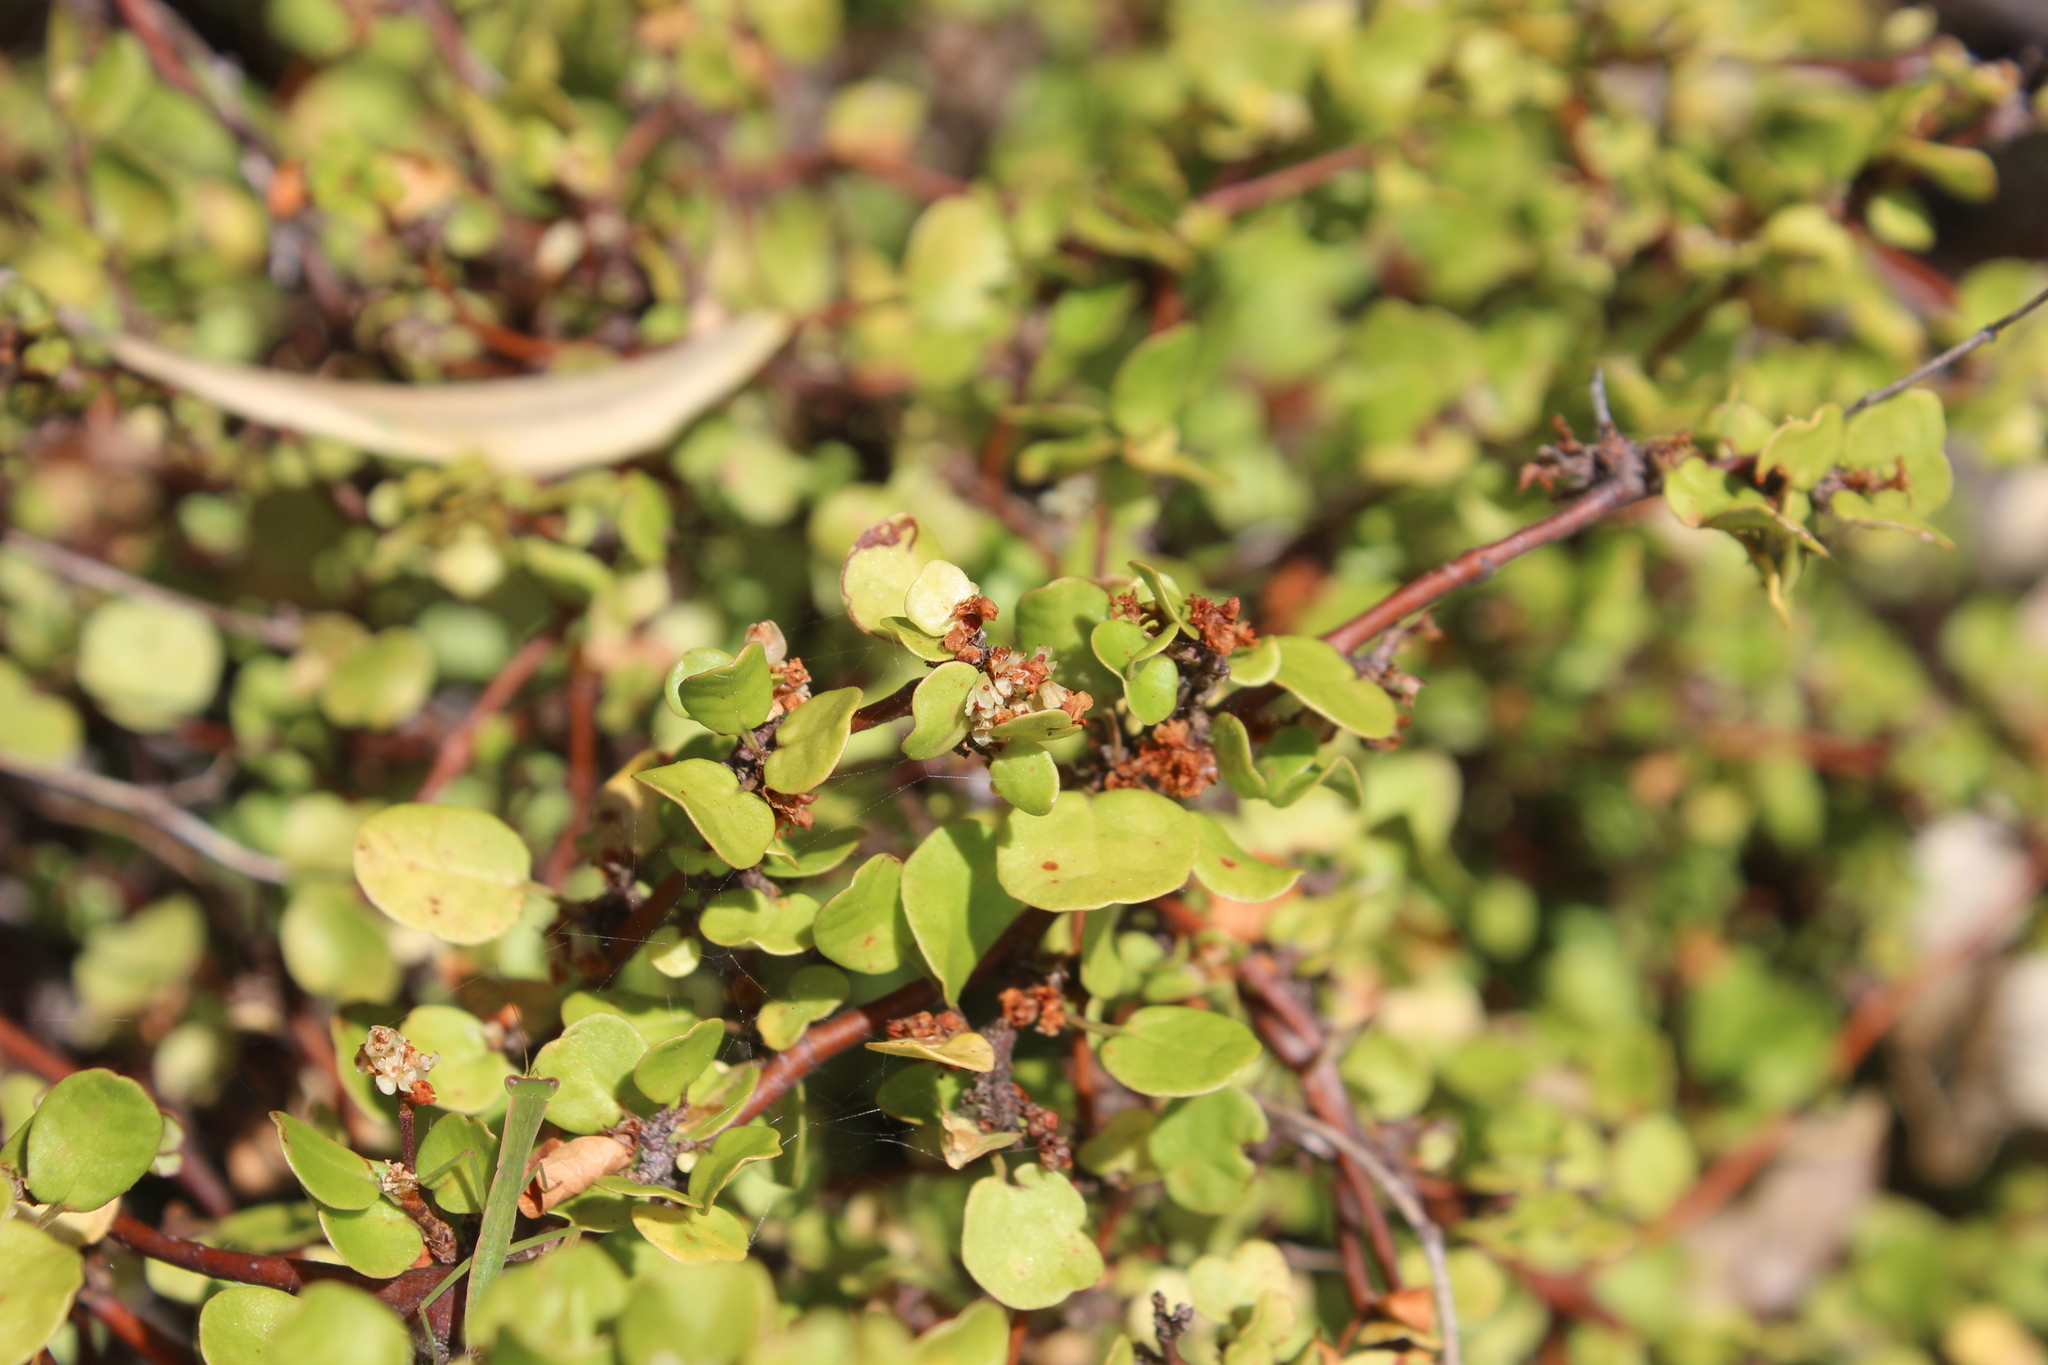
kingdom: Plantae
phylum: Tracheophyta
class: Magnoliopsida
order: Caryophyllales
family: Polygonaceae
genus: Muehlenbeckia
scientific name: Muehlenbeckia complexa
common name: Wireplant
